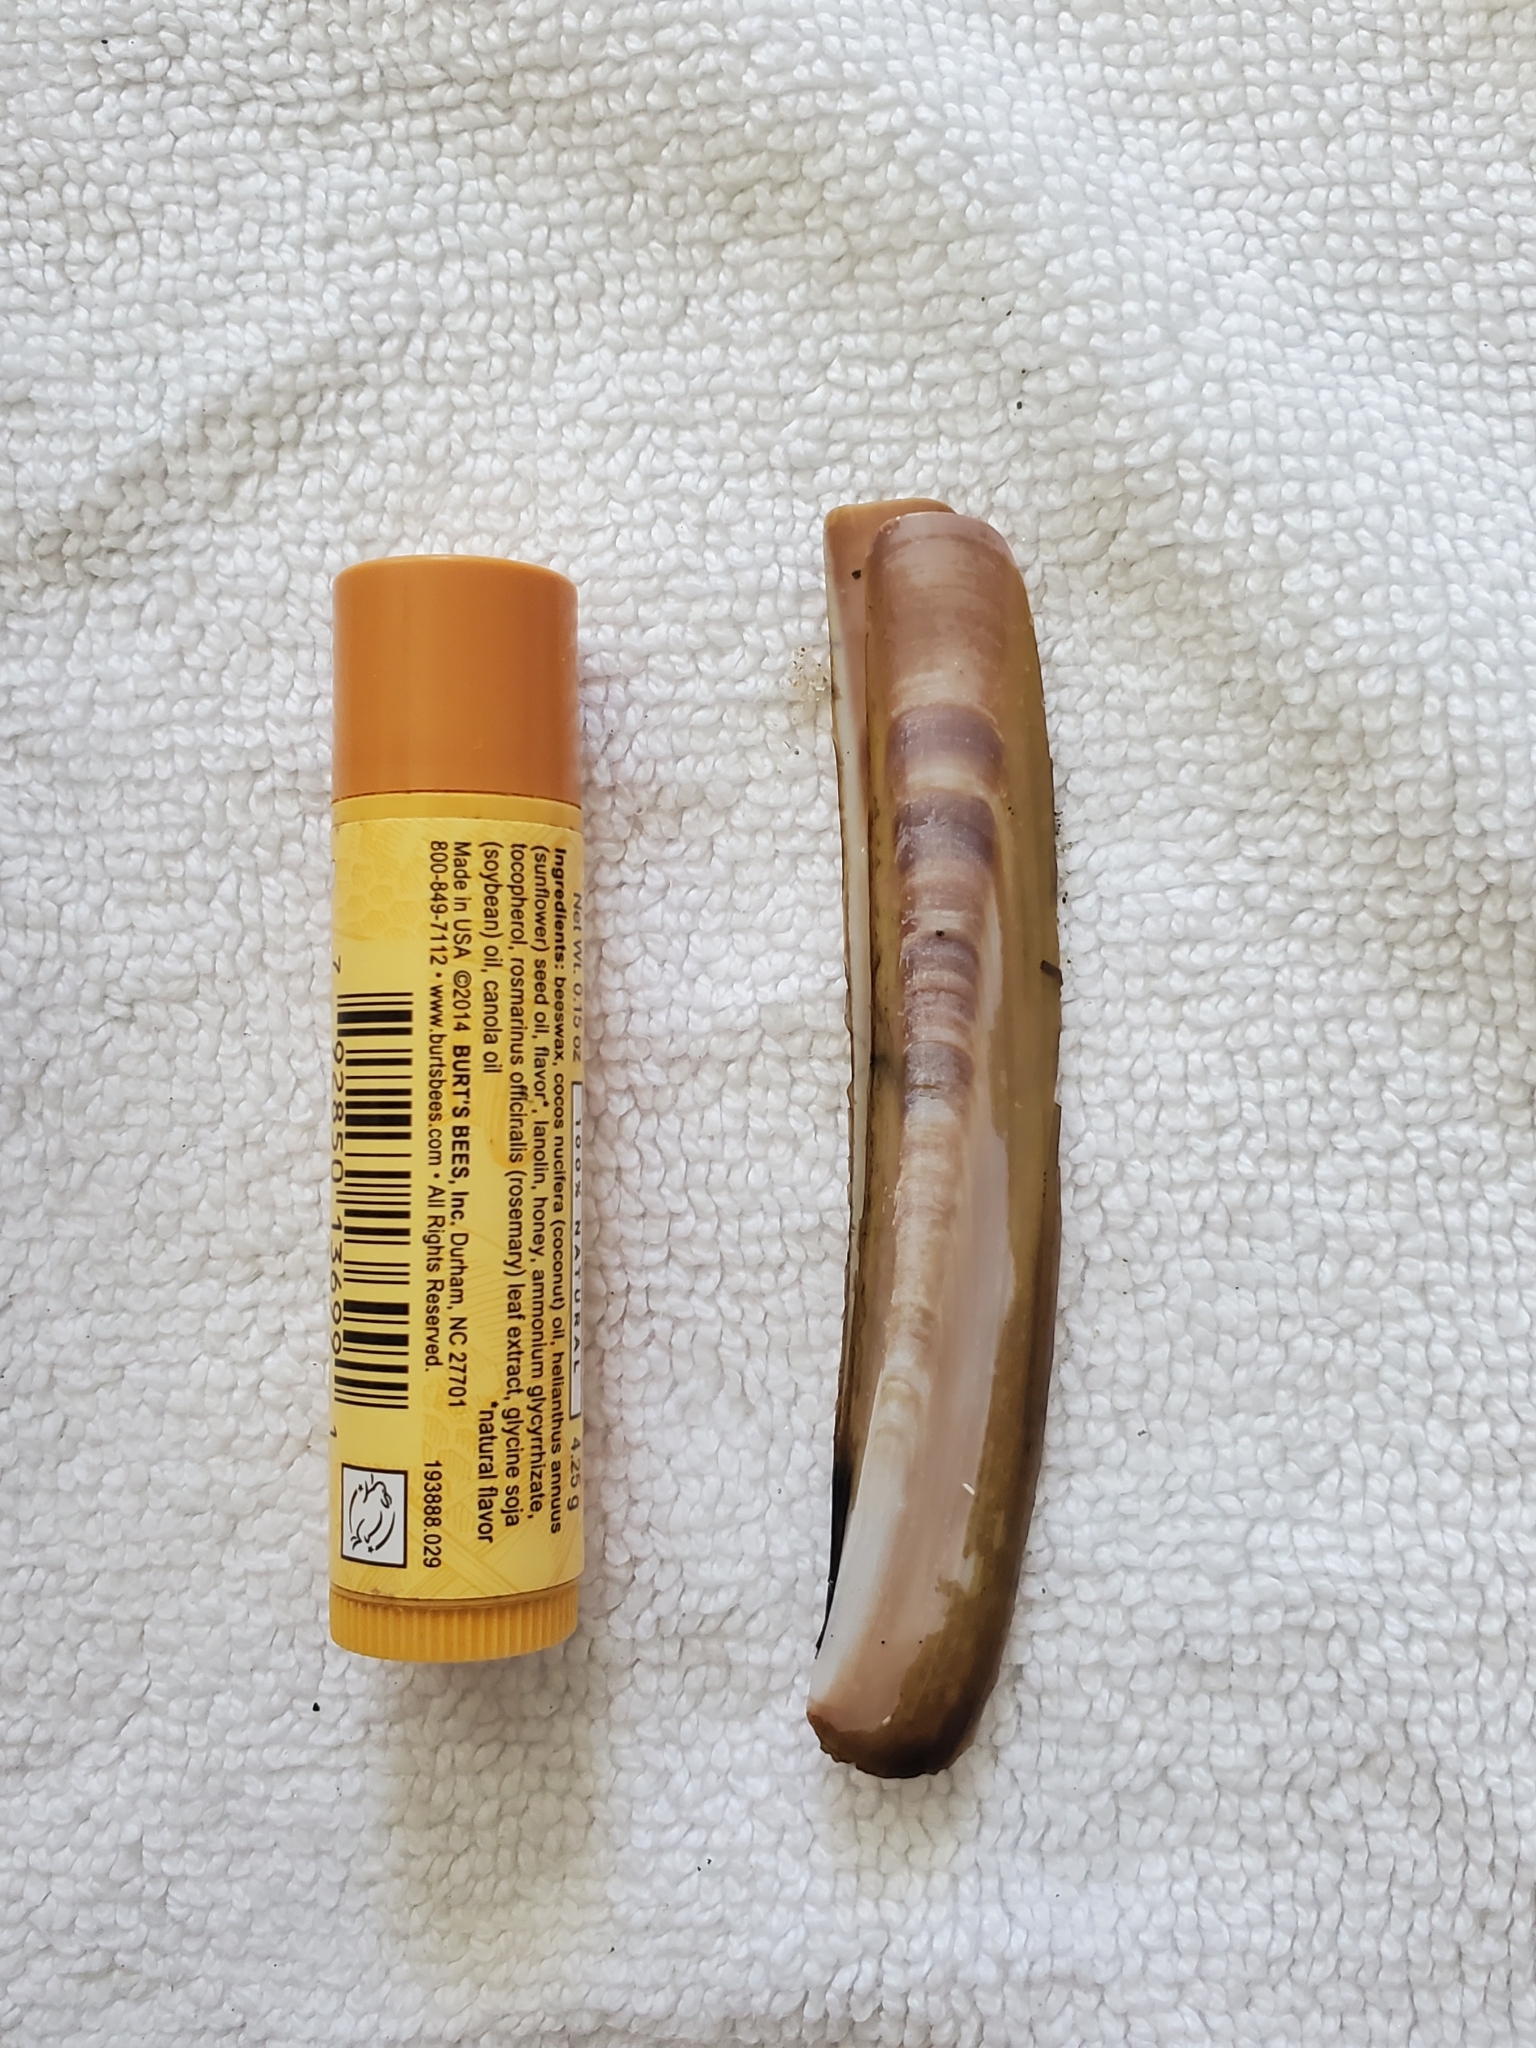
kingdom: Animalia
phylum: Mollusca
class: Bivalvia
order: Adapedonta
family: Pharidae
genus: Ensis
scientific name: Ensis leei
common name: American jack knife clam
